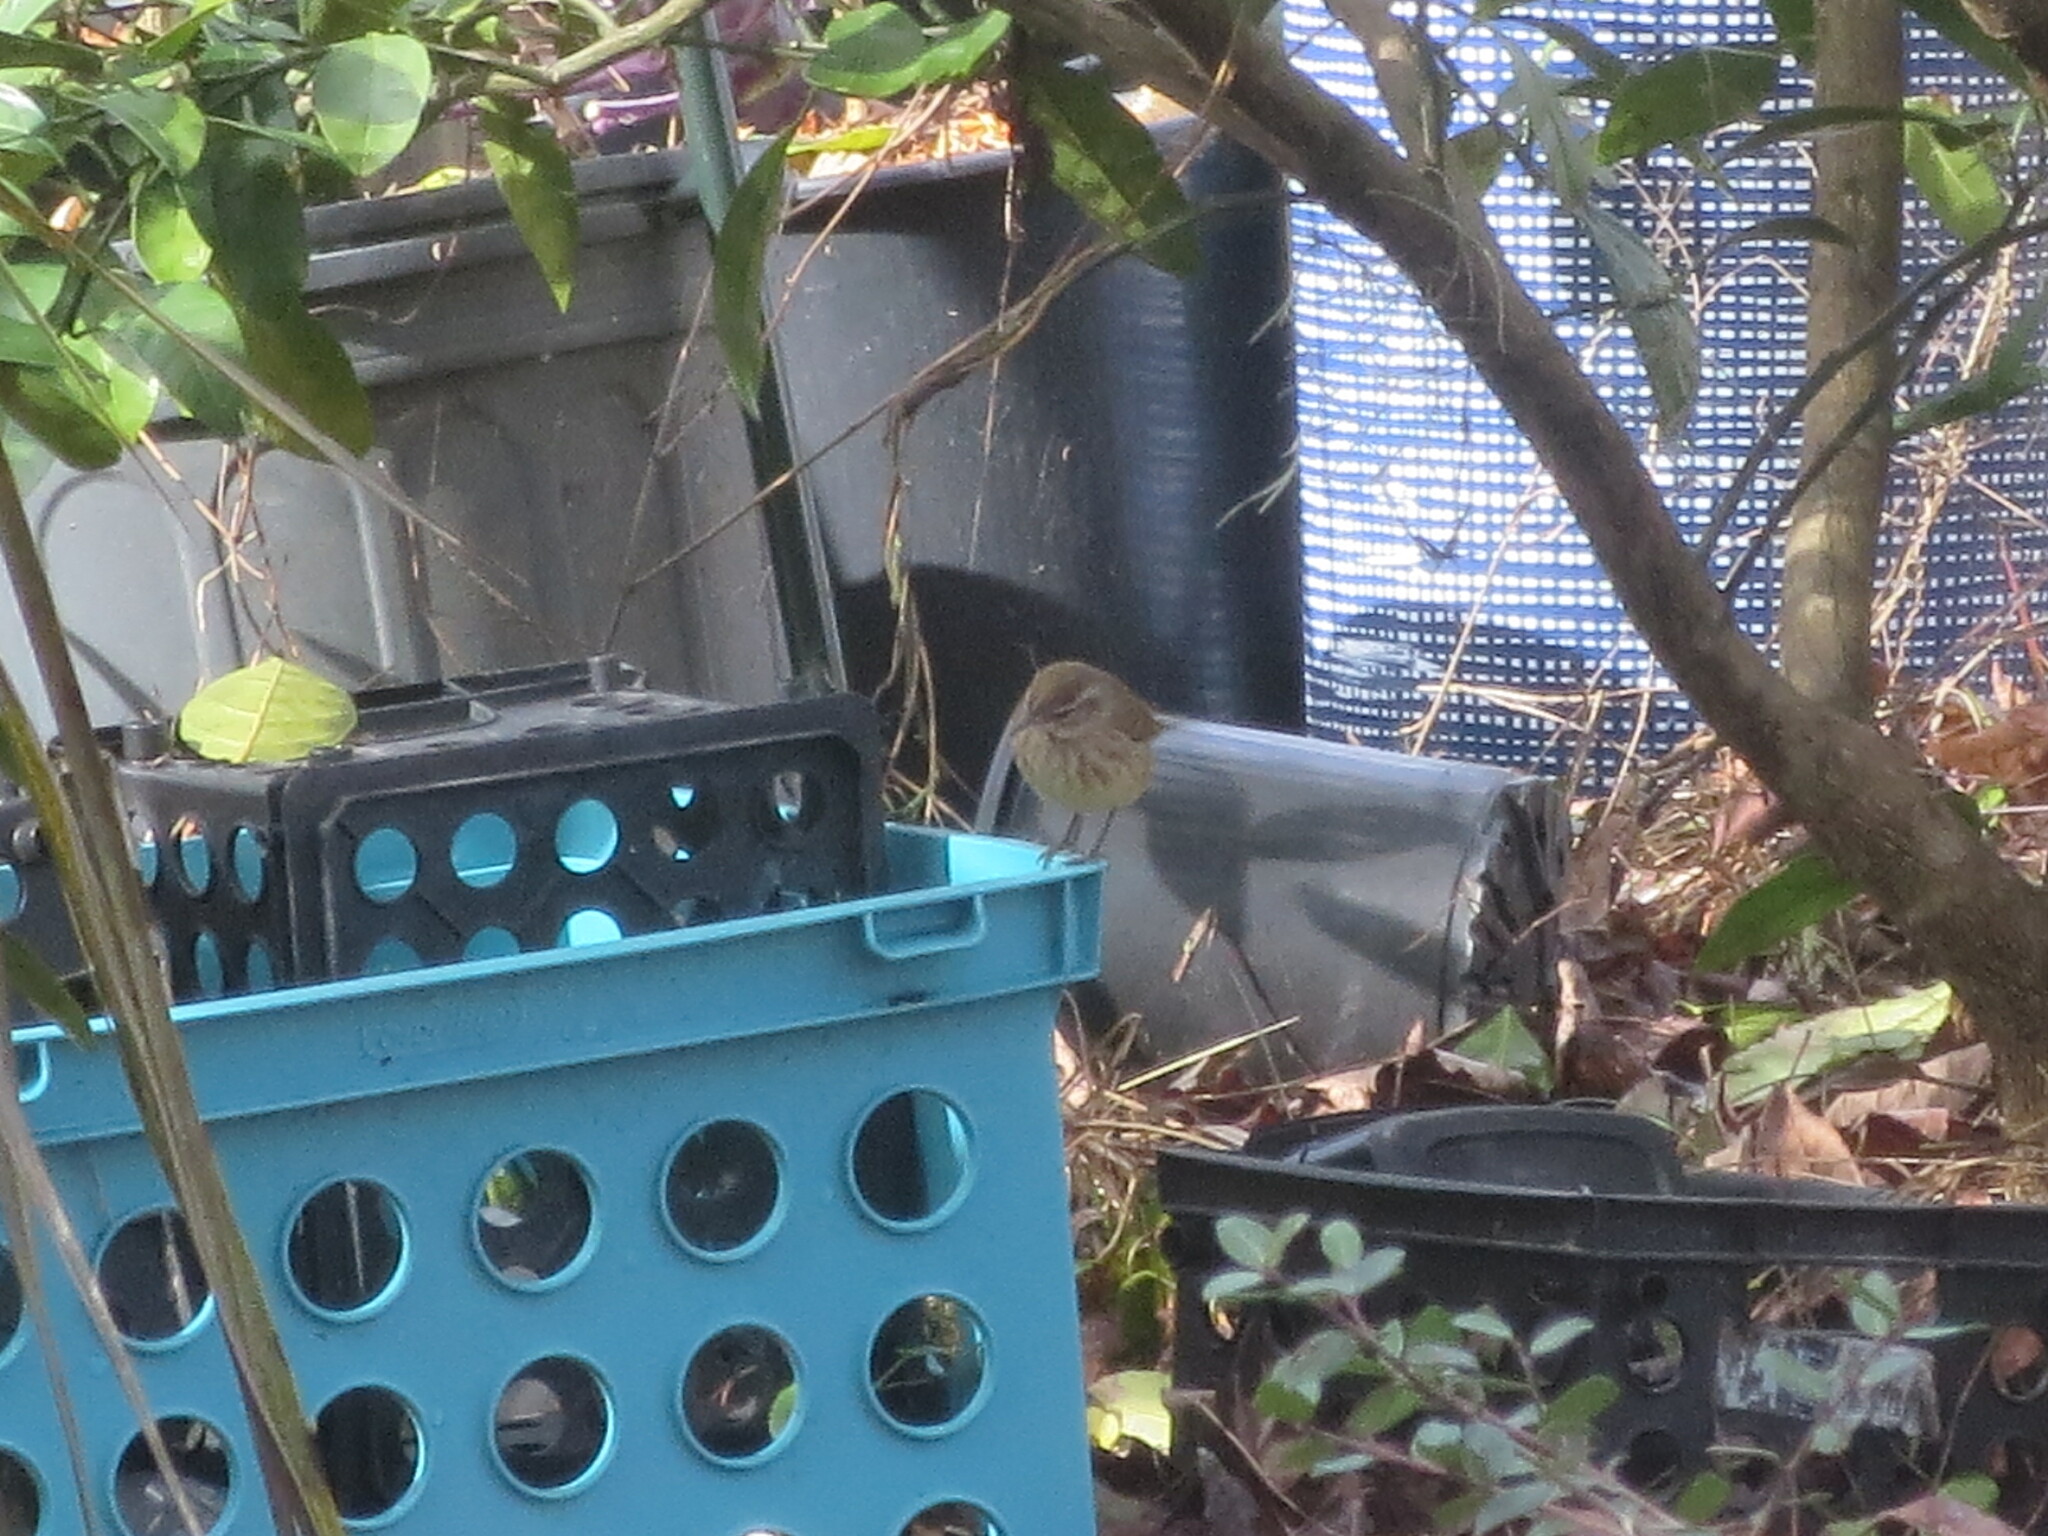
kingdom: Animalia
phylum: Chordata
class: Aves
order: Passeriformes
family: Parulidae
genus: Setophaga
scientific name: Setophaga palmarum
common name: Palm warbler
